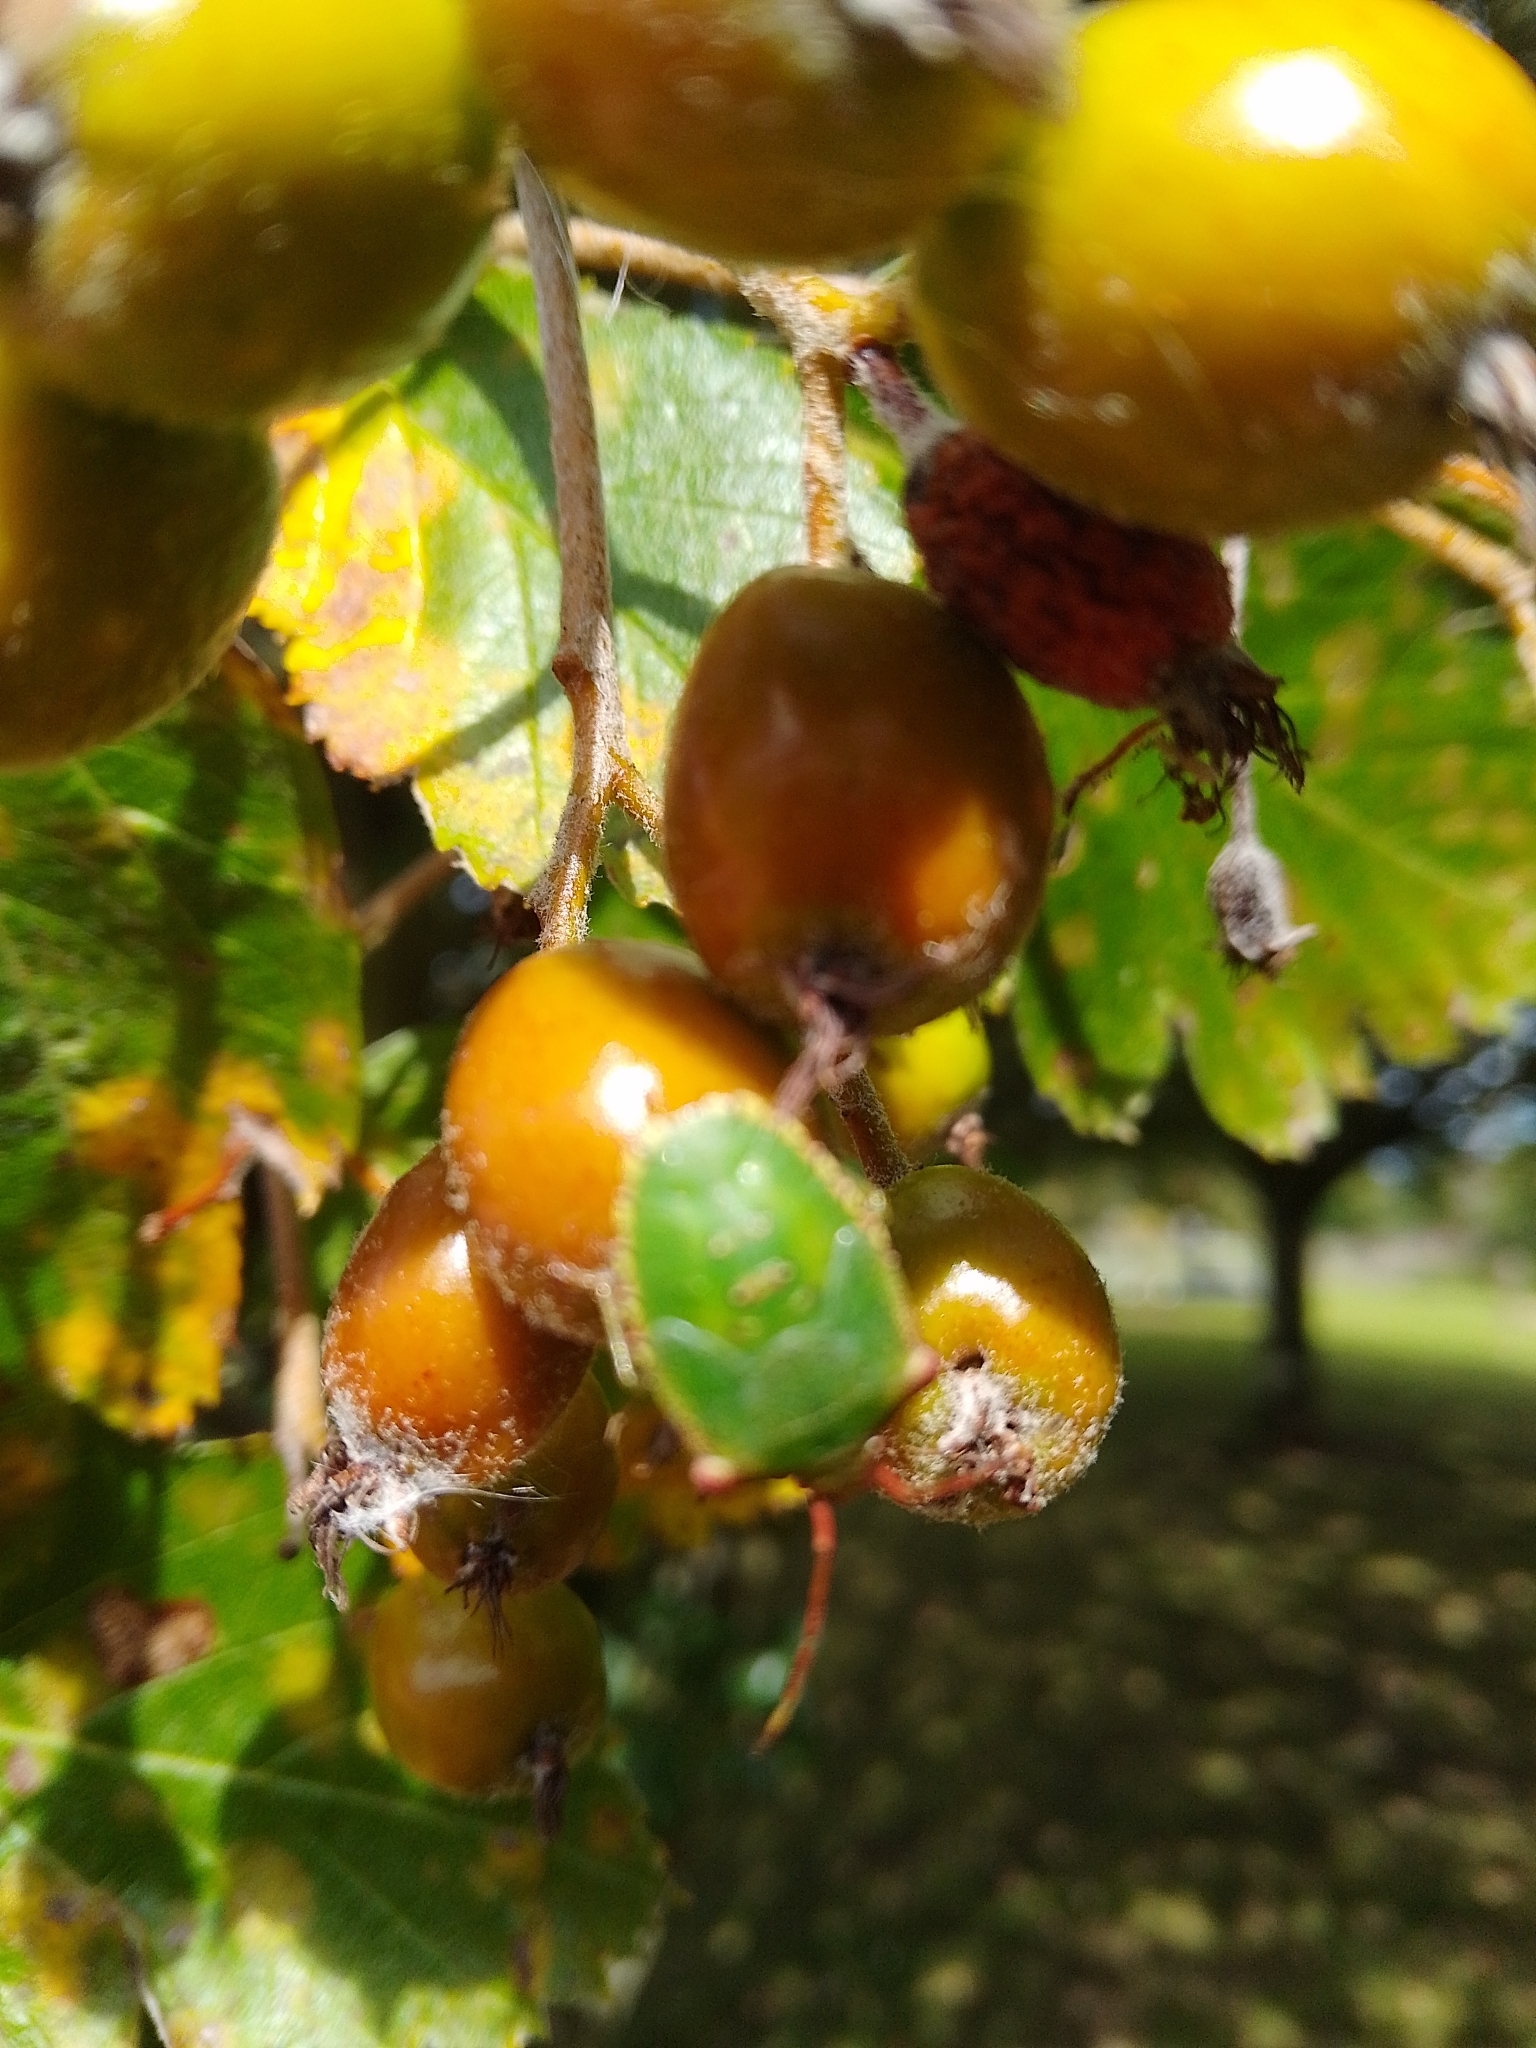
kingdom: Animalia
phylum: Arthropoda
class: Insecta
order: Hemiptera
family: Acanthosomatidae
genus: Acanthosoma
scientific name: Acanthosoma haemorrhoidale
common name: Hawthorn shieldbug
